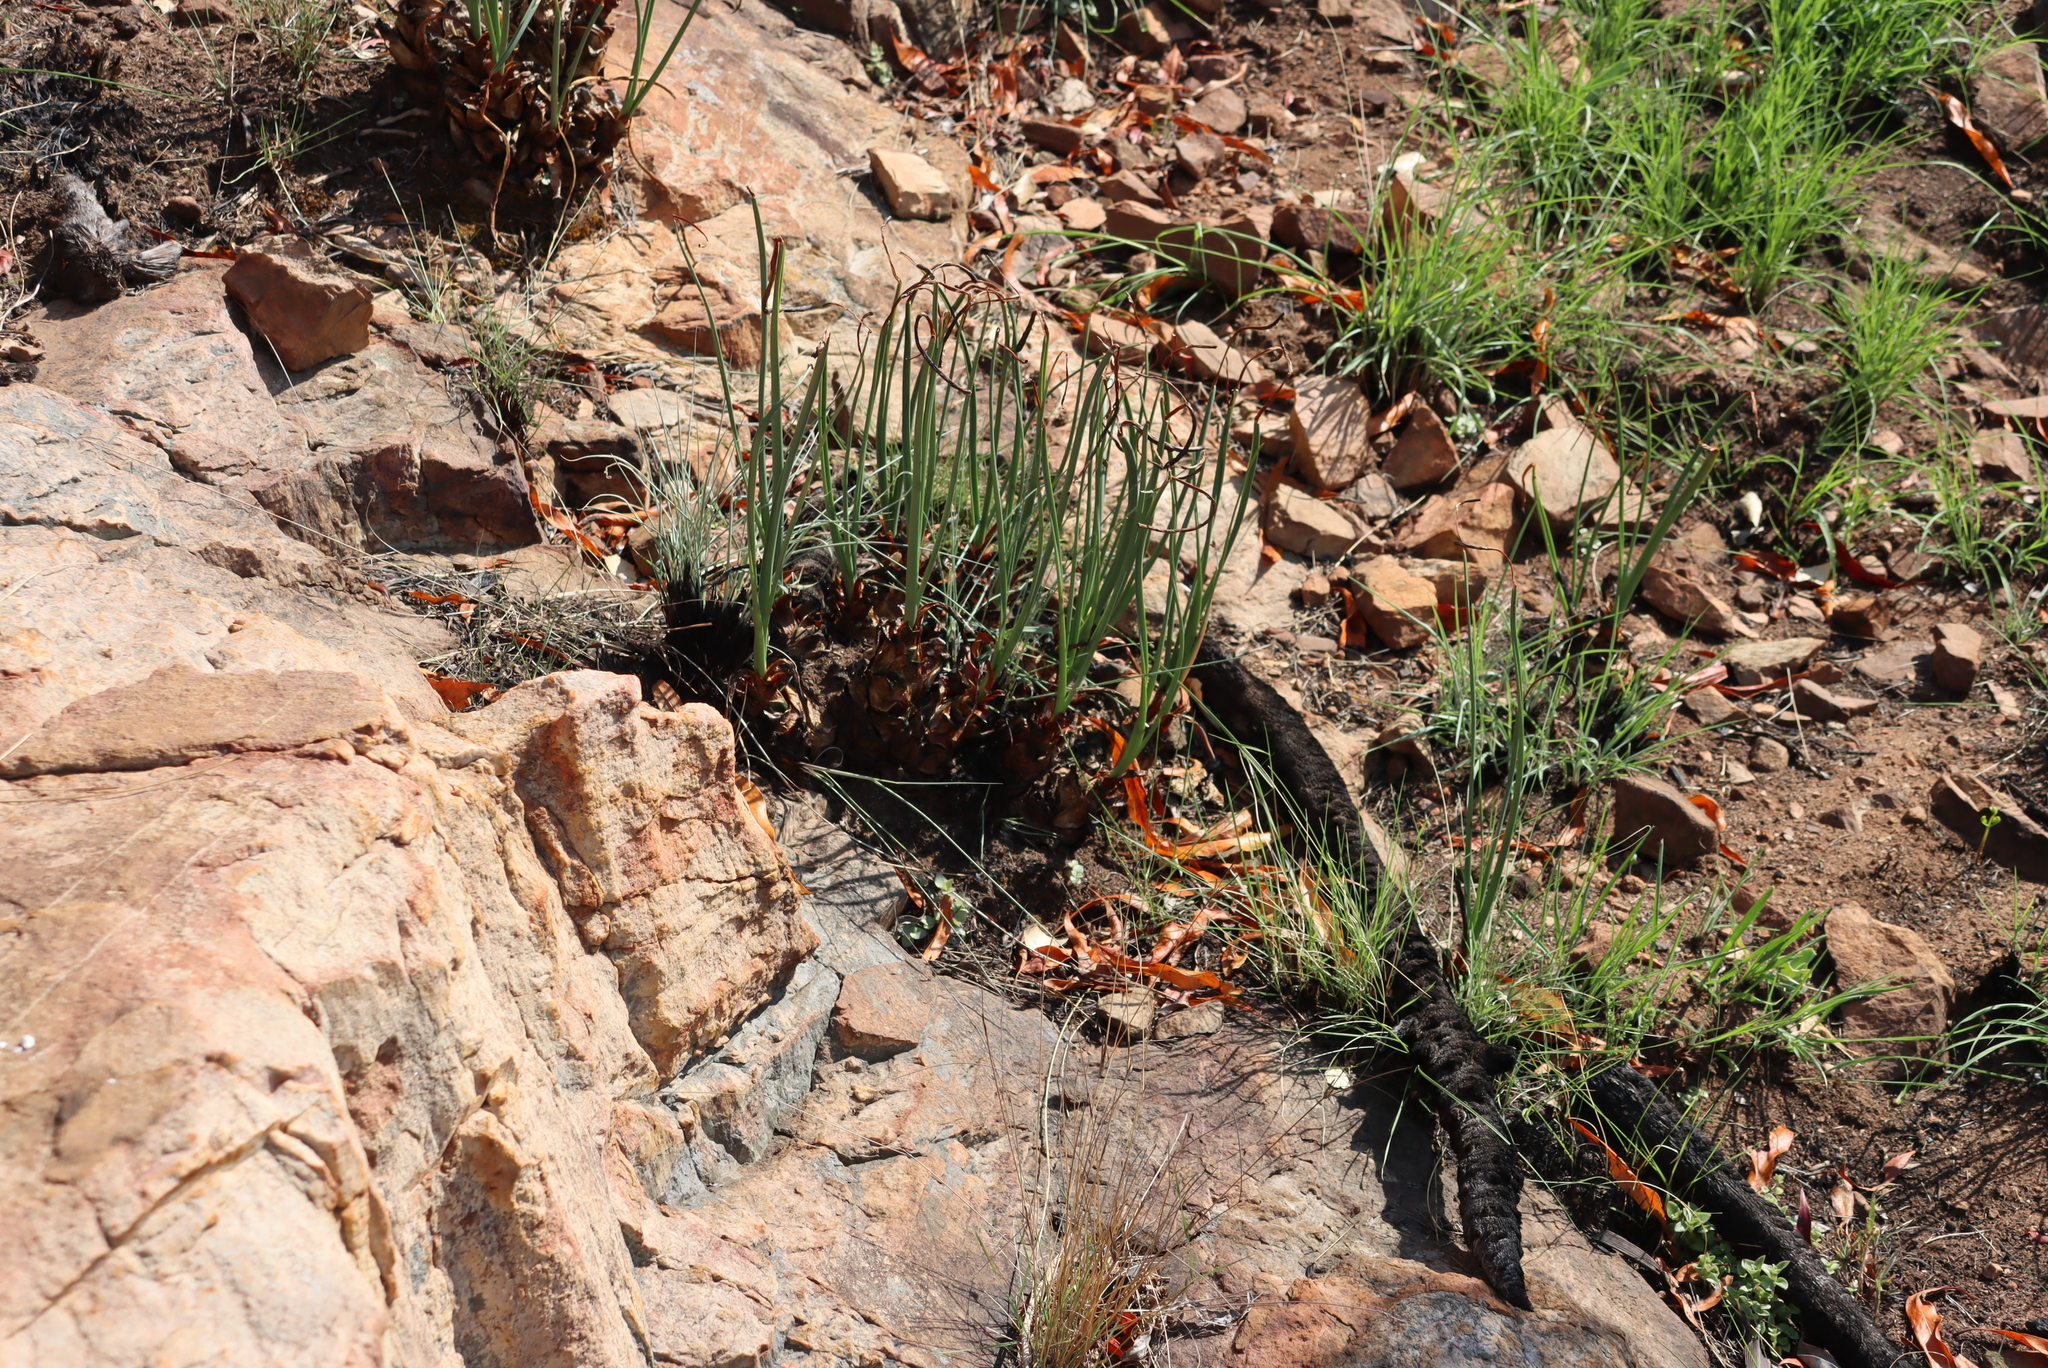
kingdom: Plantae
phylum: Tracheophyta
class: Liliopsida
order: Asparagales
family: Asparagaceae
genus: Drimia
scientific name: Drimia delagoensis
